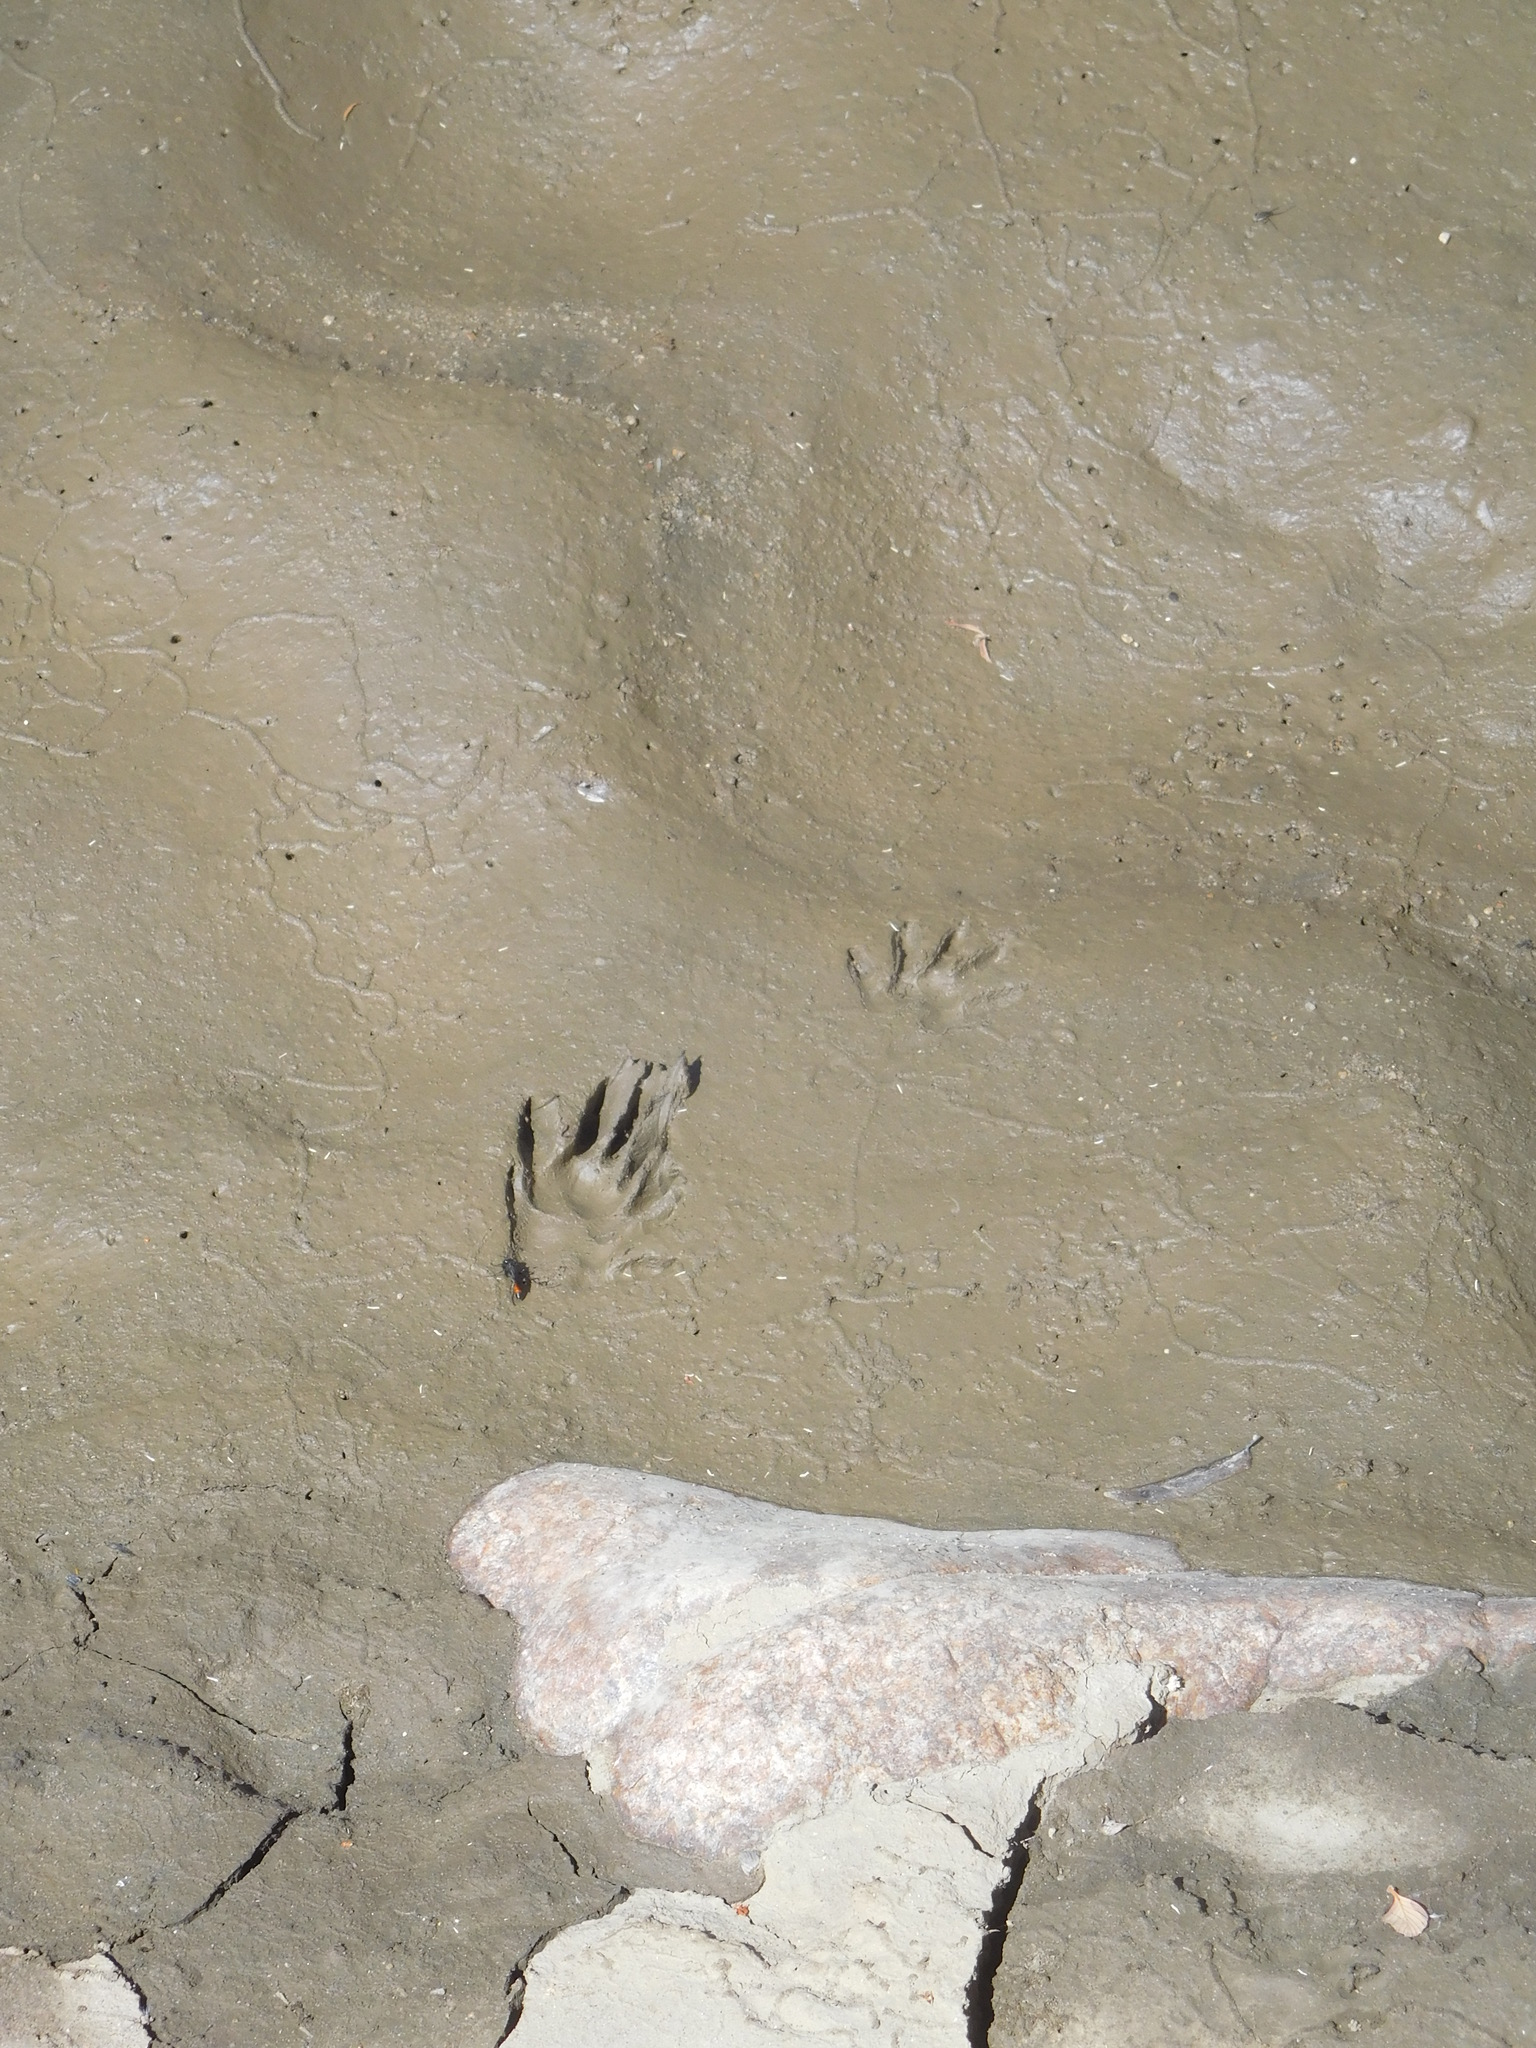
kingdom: Animalia
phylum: Chordata
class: Mammalia
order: Carnivora
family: Procyonidae
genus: Procyon
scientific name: Procyon lotor
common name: Raccoon
